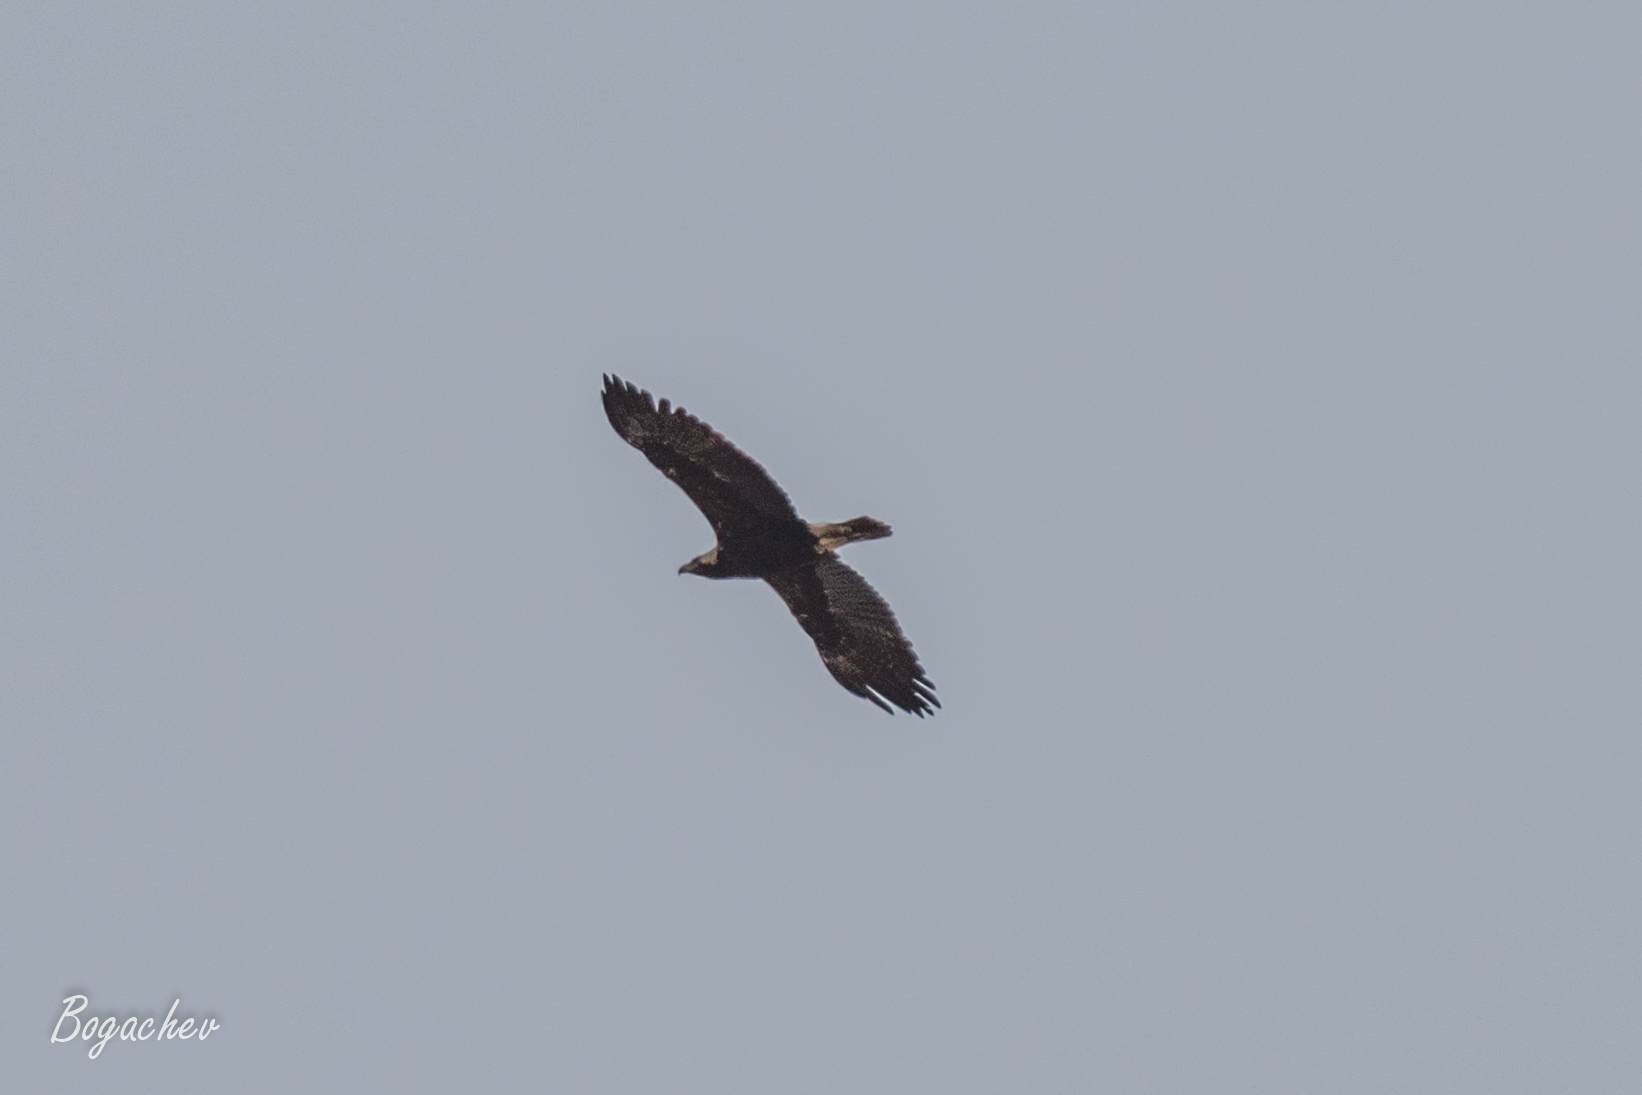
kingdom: Animalia
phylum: Chordata
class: Aves
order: Accipitriformes
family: Accipitridae
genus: Aquila
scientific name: Aquila heliaca
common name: Eastern imperial eagle
